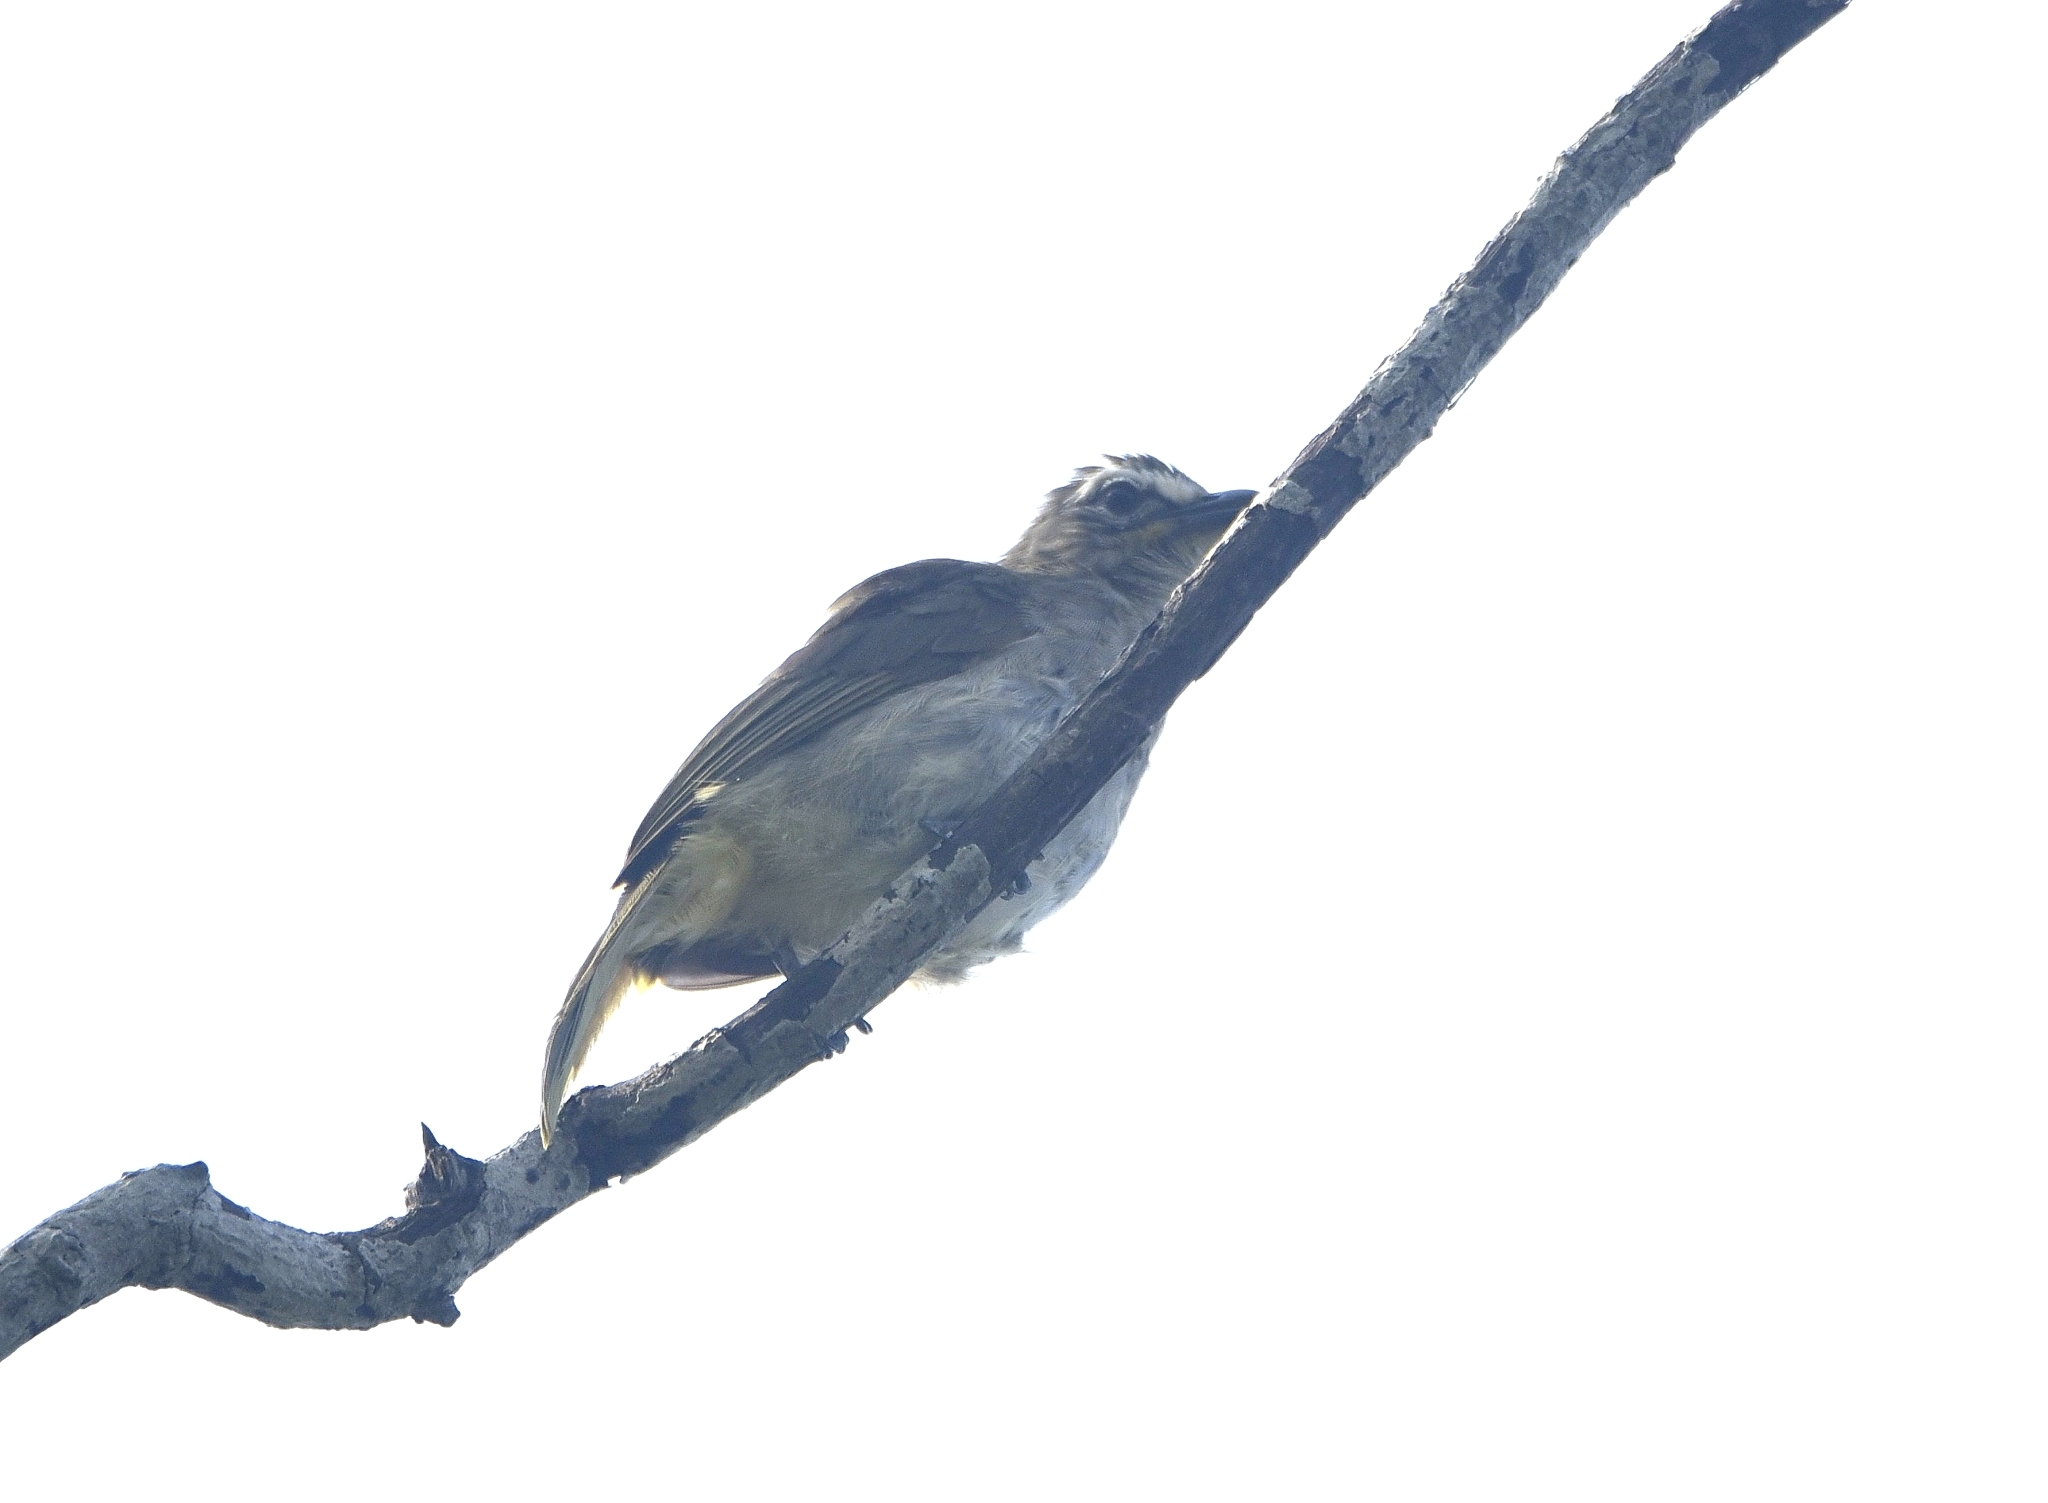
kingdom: Animalia
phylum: Chordata
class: Aves
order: Passeriformes
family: Pycnonotidae
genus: Pycnonotus
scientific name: Pycnonotus luteolus
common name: White-browed bulbul
